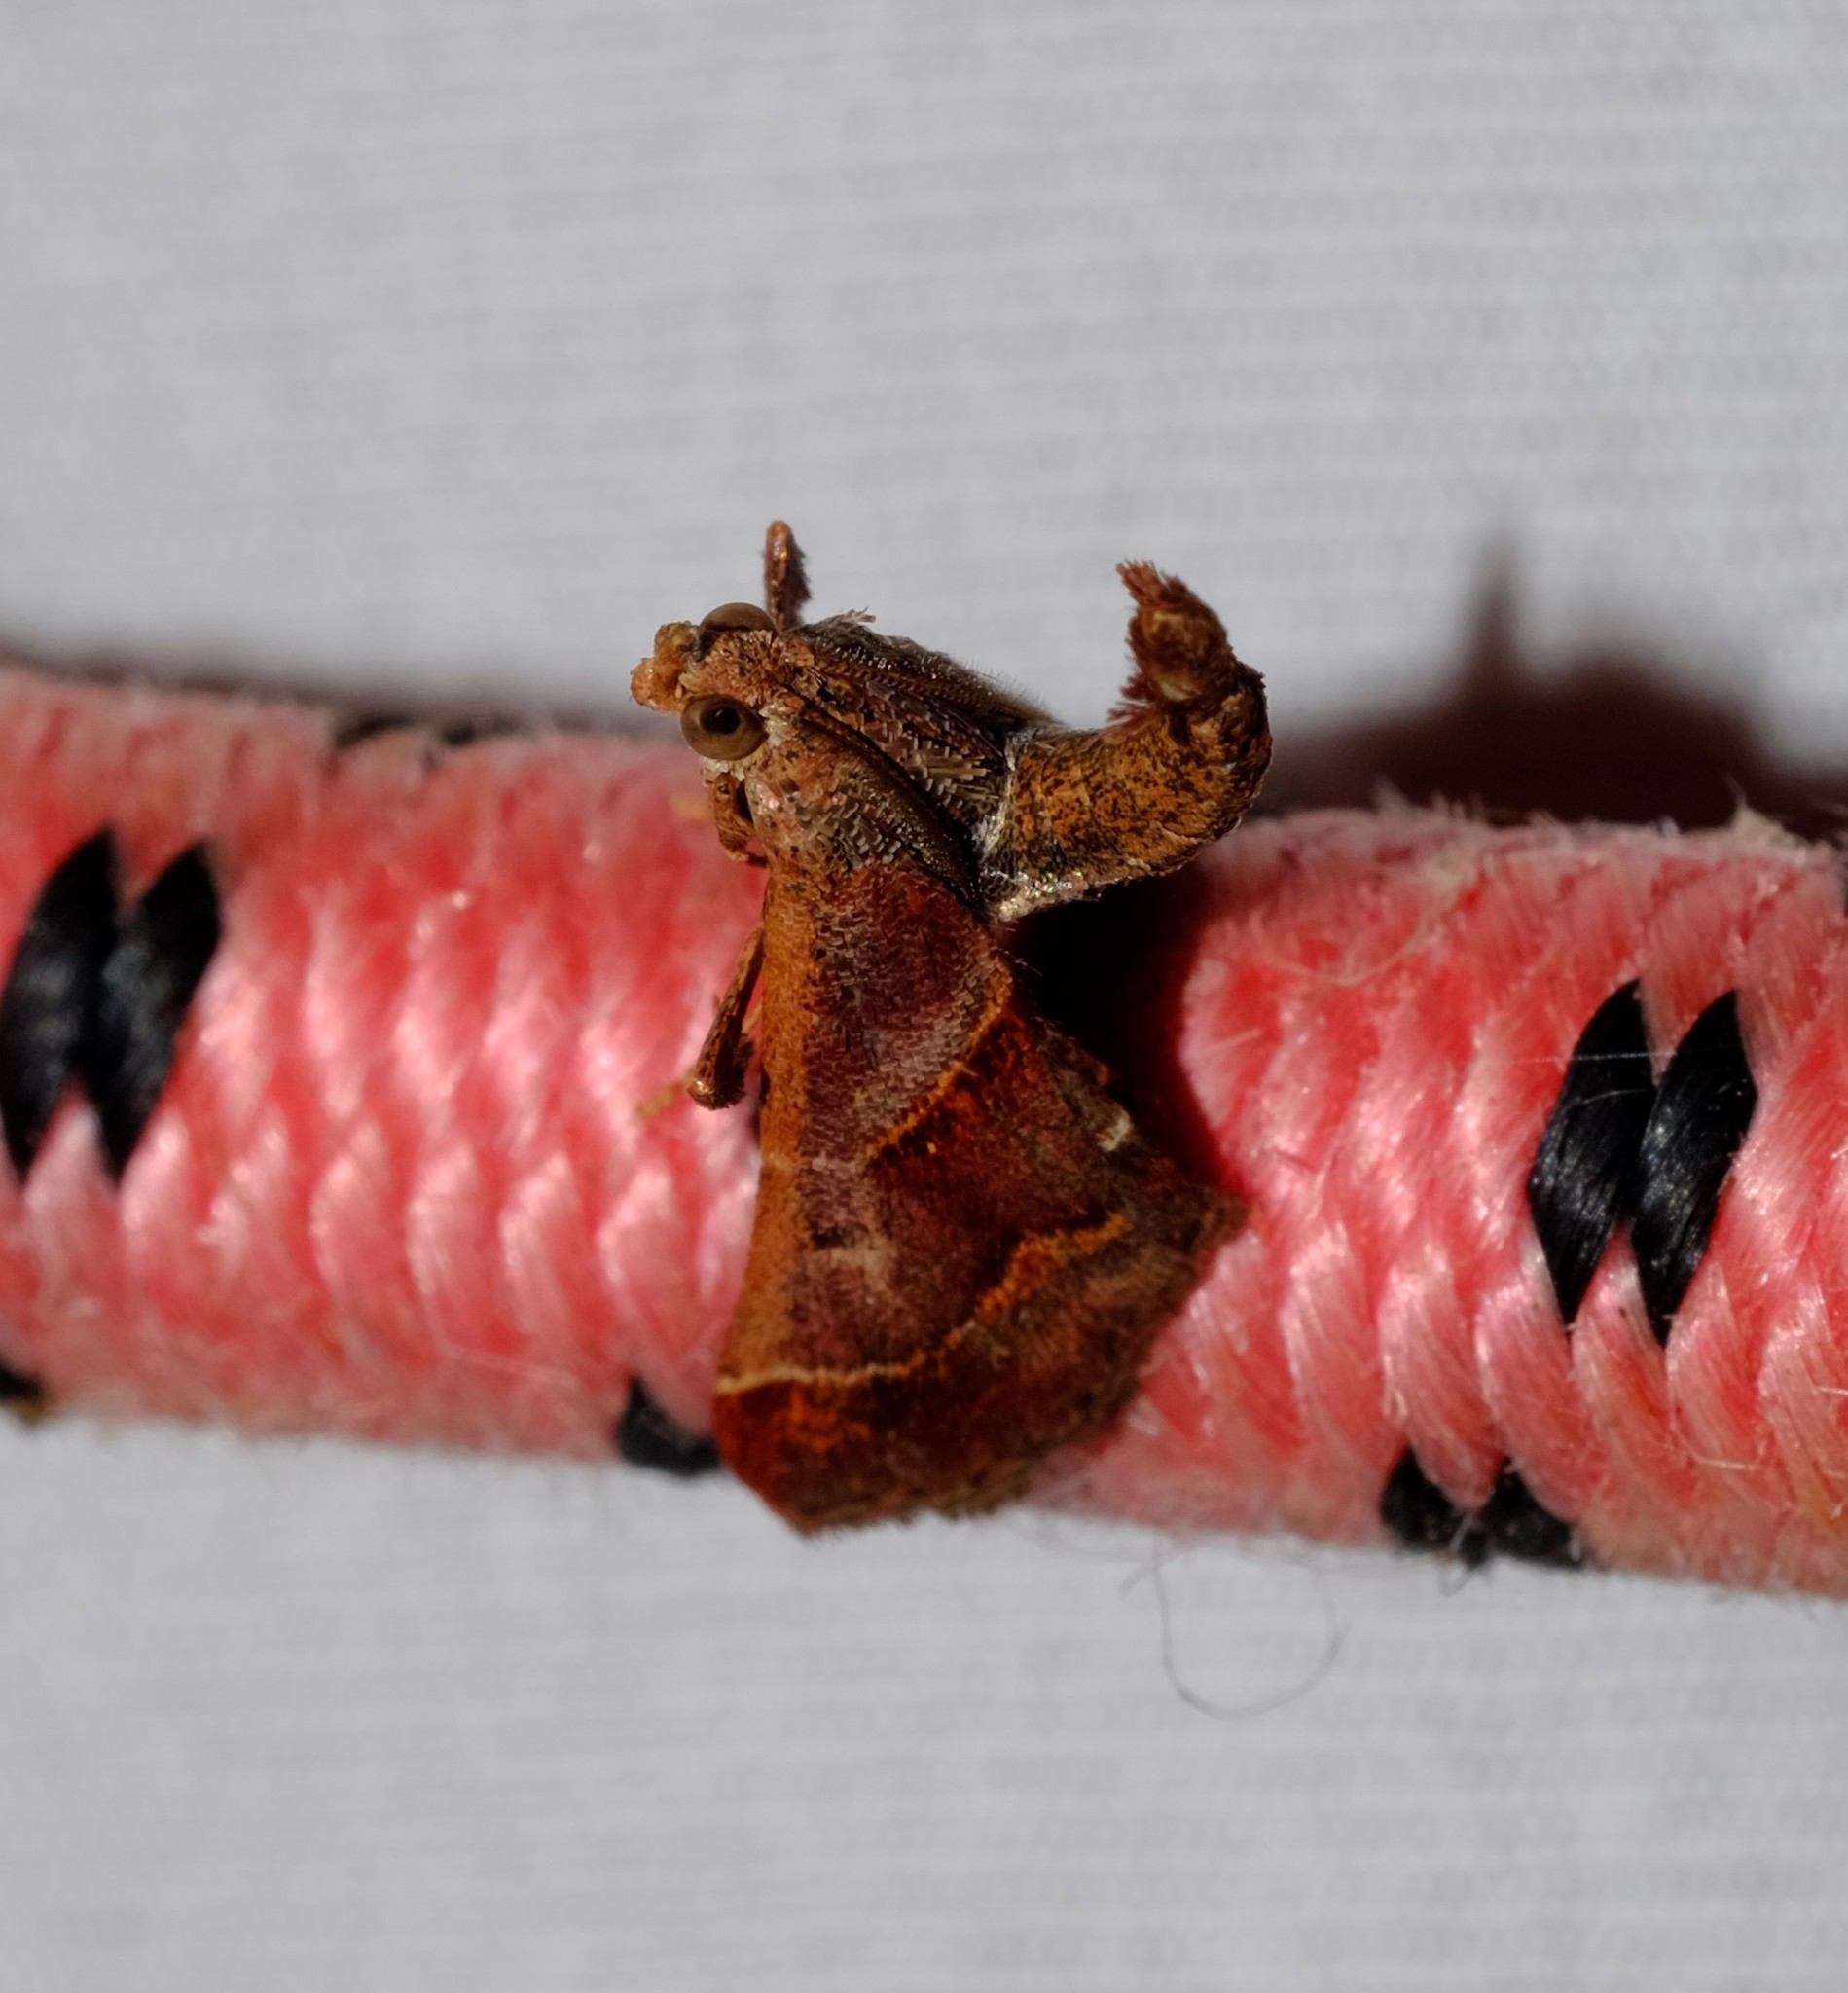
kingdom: Animalia
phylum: Arthropoda
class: Insecta
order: Lepidoptera
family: Pyralidae
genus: Gauna
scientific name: Gauna aegusalis
